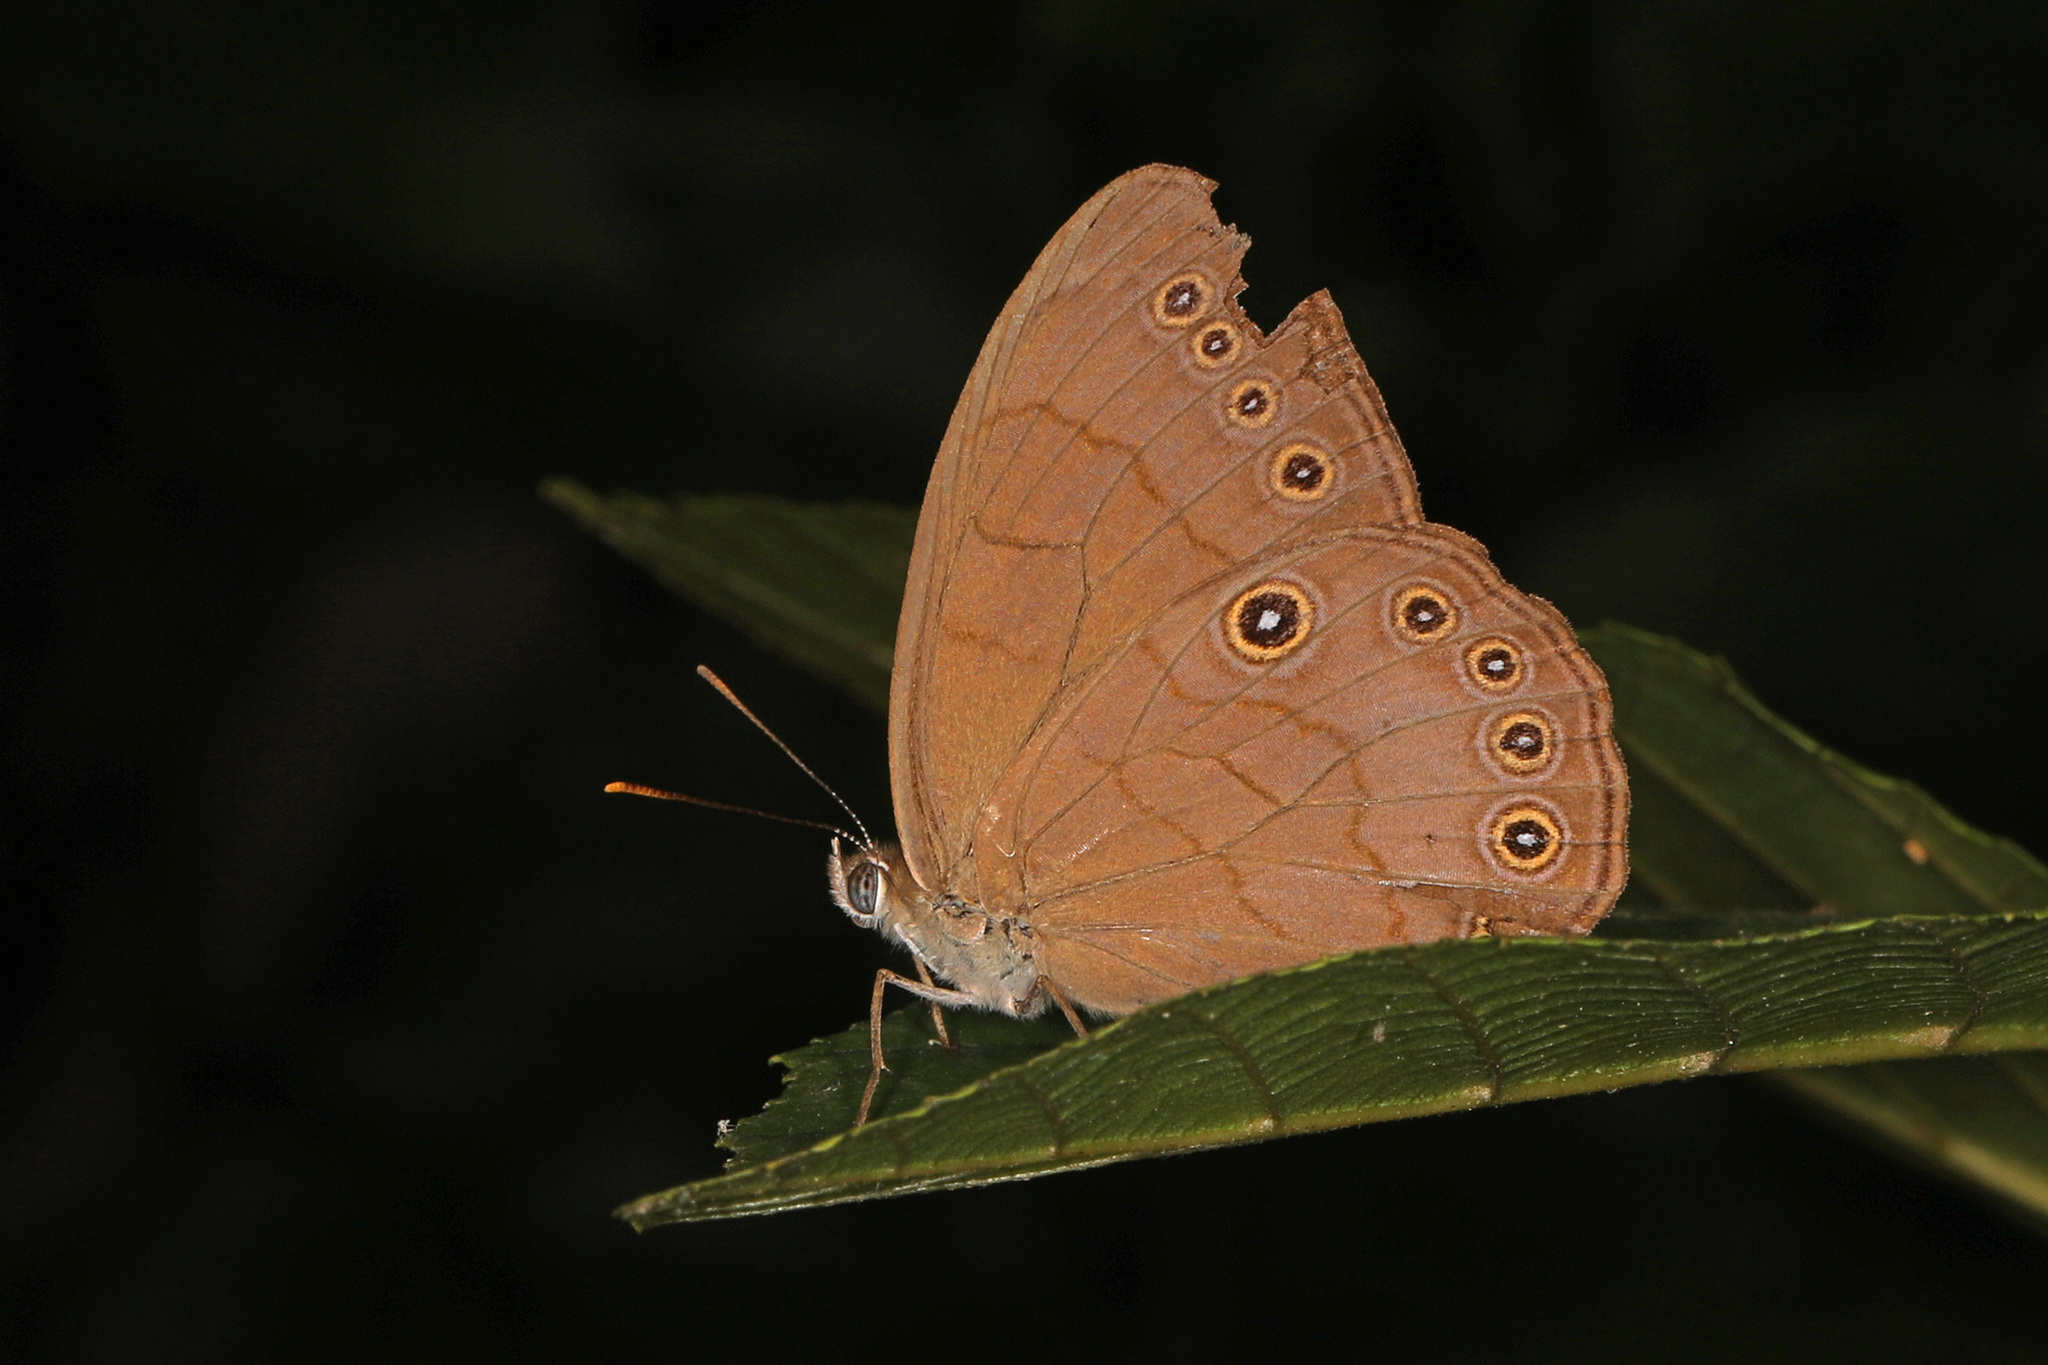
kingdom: Animalia
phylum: Arthropoda
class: Insecta
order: Lepidoptera
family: Nymphalidae
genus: Lethe
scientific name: Lethe eurydice
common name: Eyed brown
